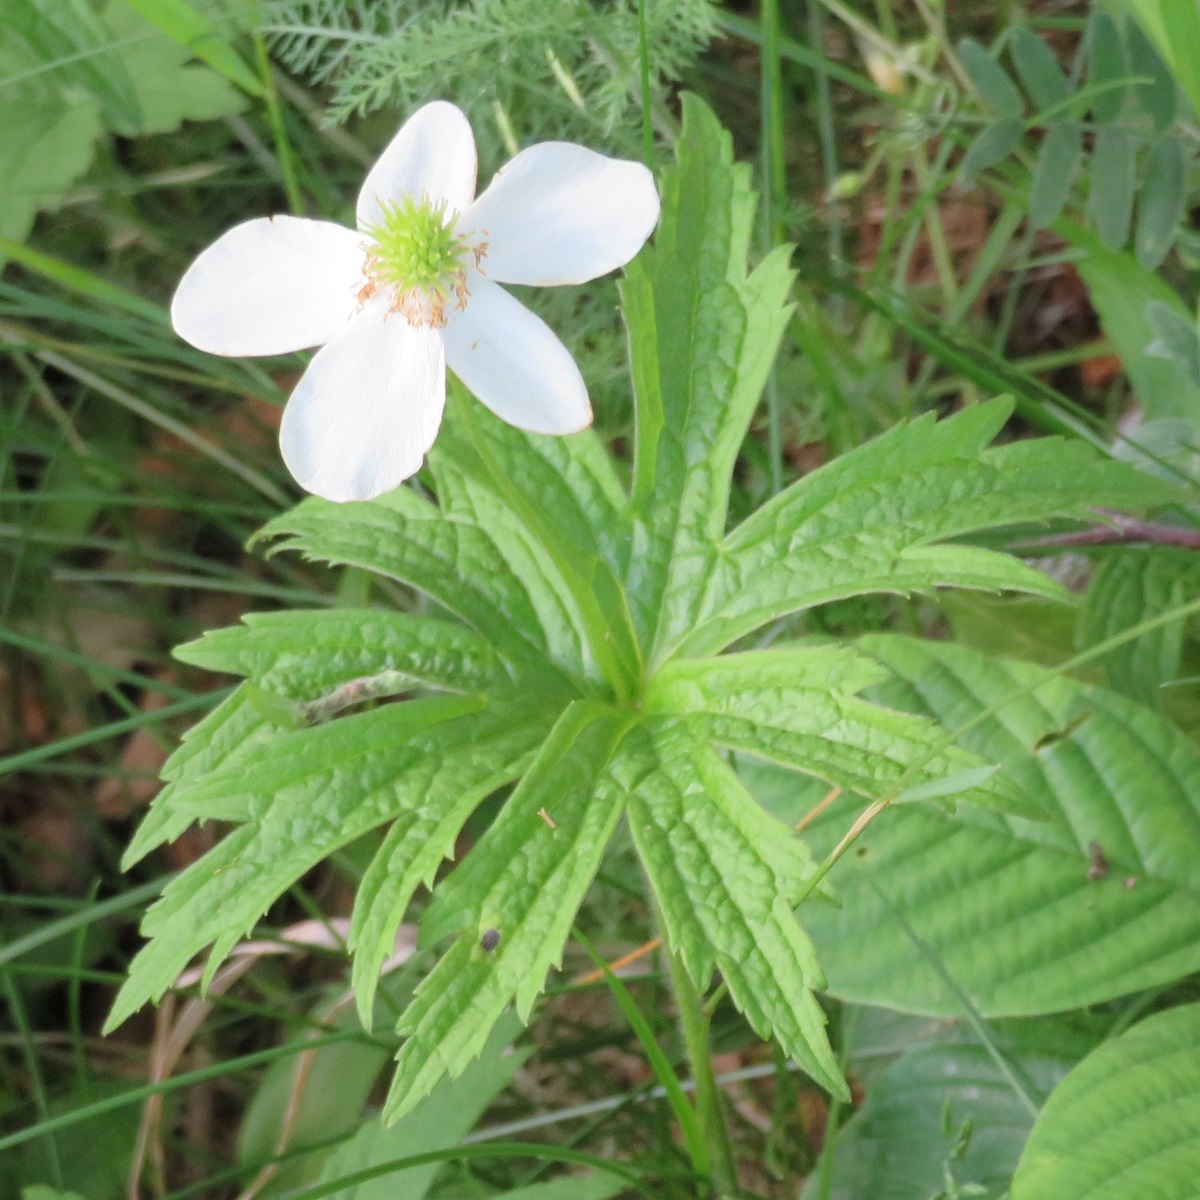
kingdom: Plantae
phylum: Tracheophyta
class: Magnoliopsida
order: Ranunculales
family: Ranunculaceae
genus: Anemonastrum
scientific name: Anemonastrum canadense
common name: Canada anemone
